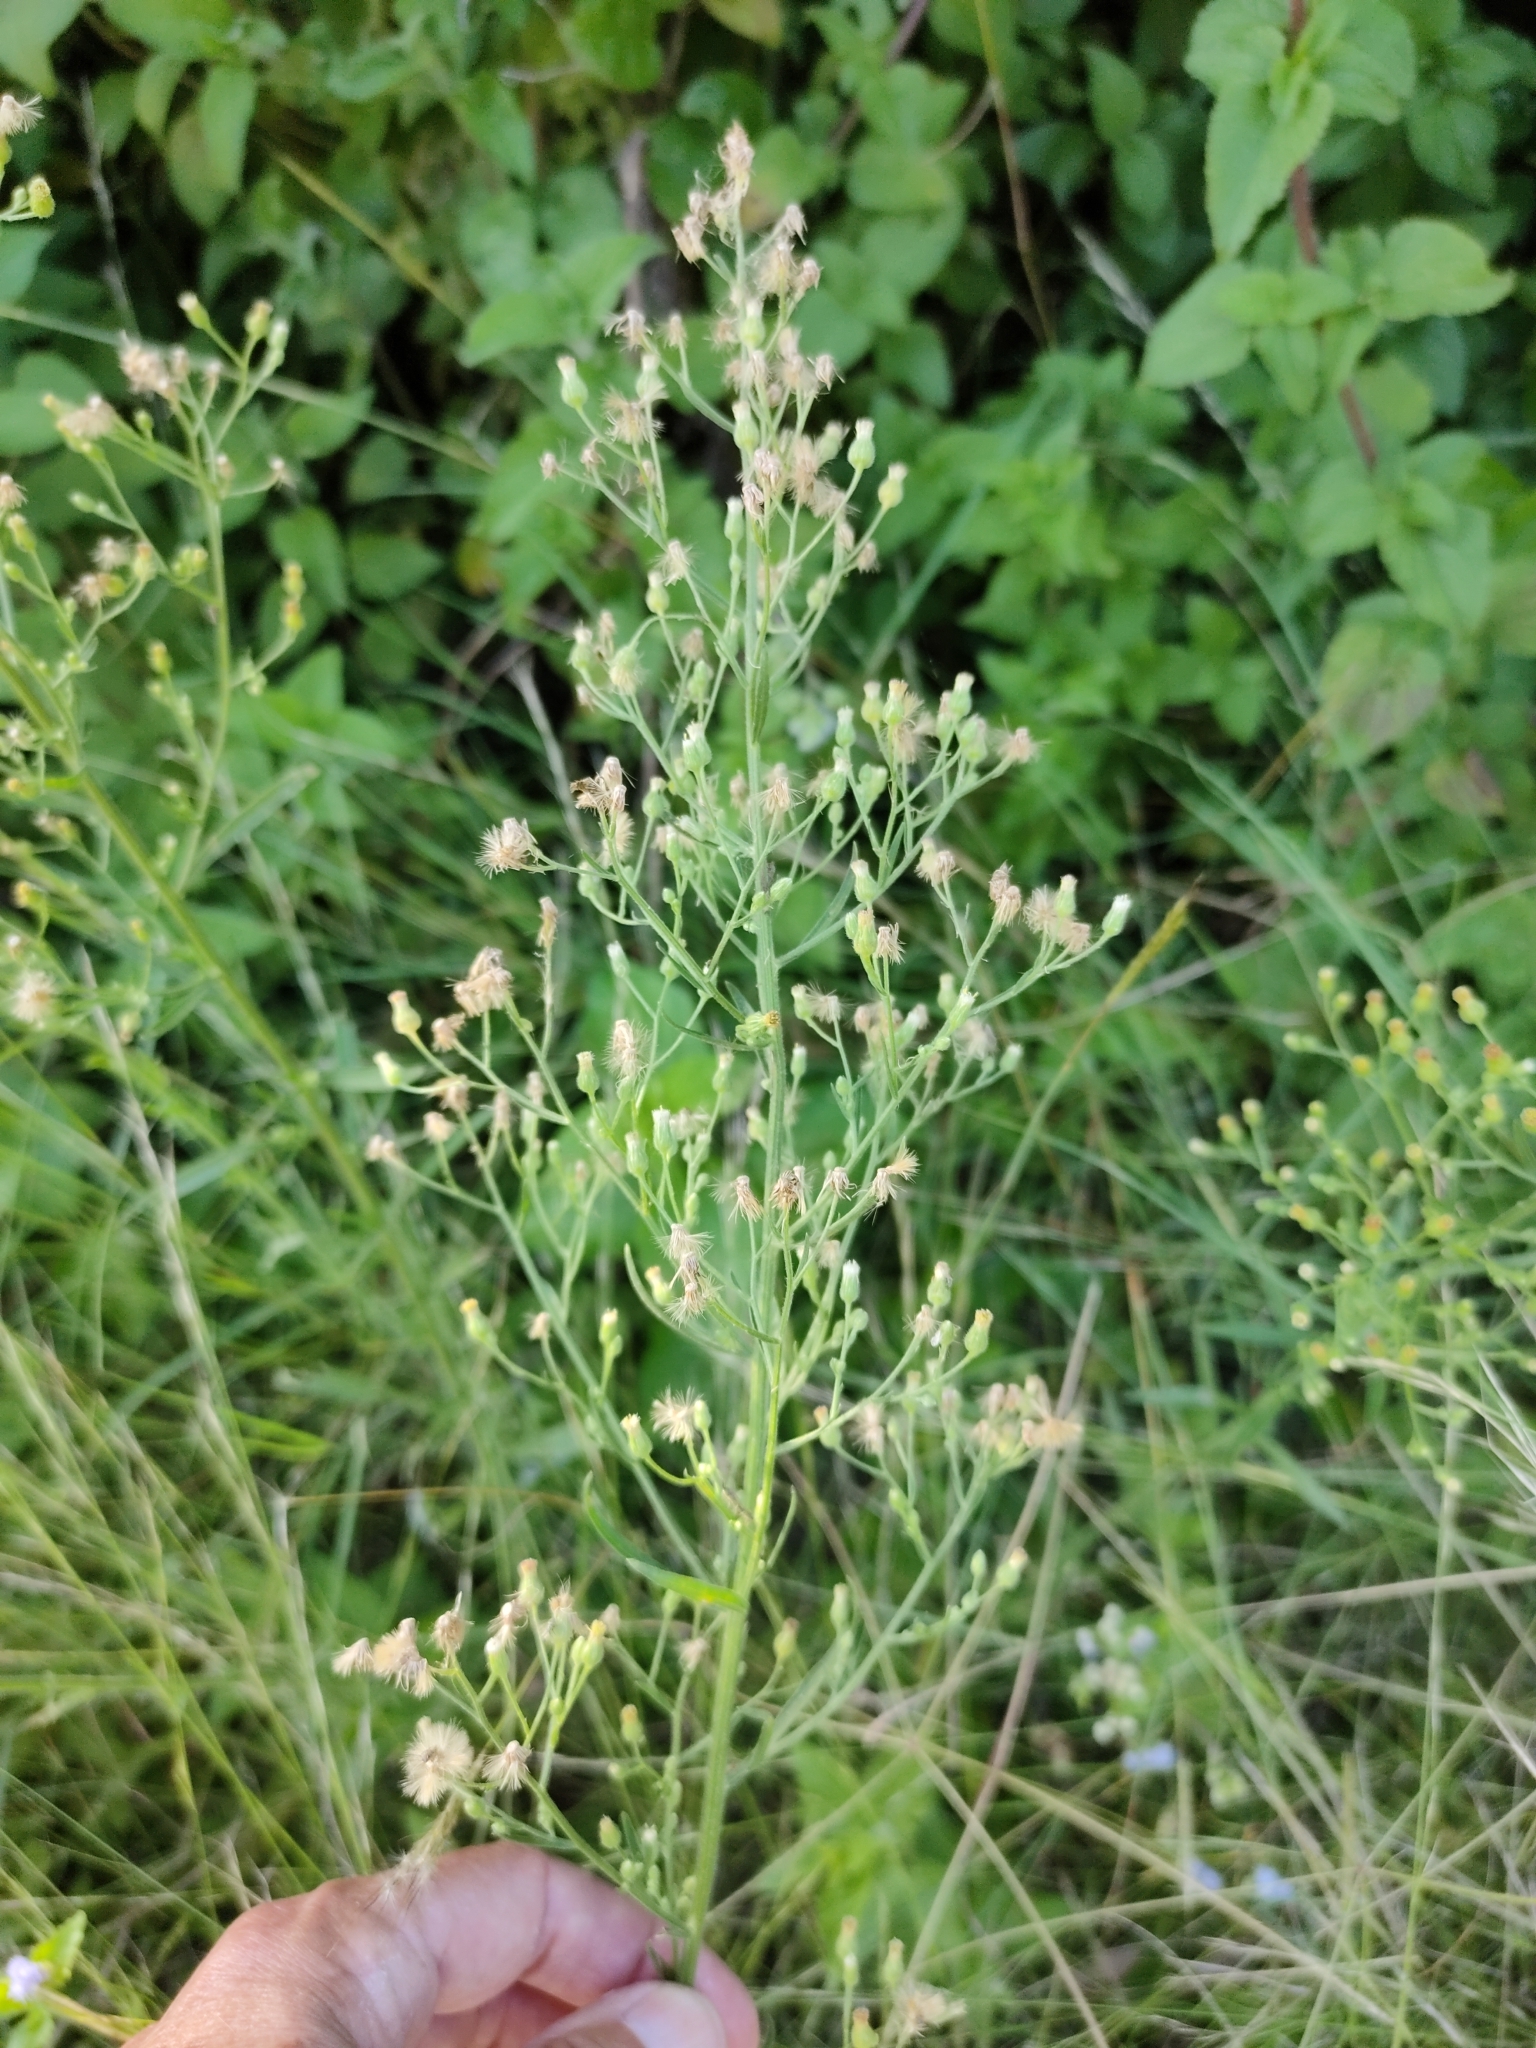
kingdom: Plantae
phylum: Tracheophyta
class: Magnoliopsida
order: Asterales
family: Asteraceae
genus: Erigeron
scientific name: Erigeron bonariensis
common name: Argentine fleabane
